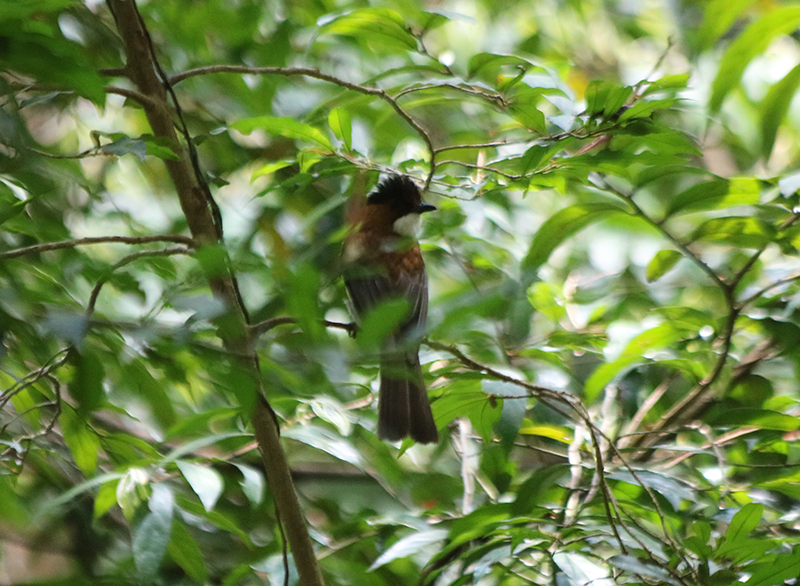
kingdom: Animalia
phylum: Chordata
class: Aves
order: Passeriformes
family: Pycnonotidae
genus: Hemixos
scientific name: Hemixos castanonotus
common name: Chestnut bulbul
